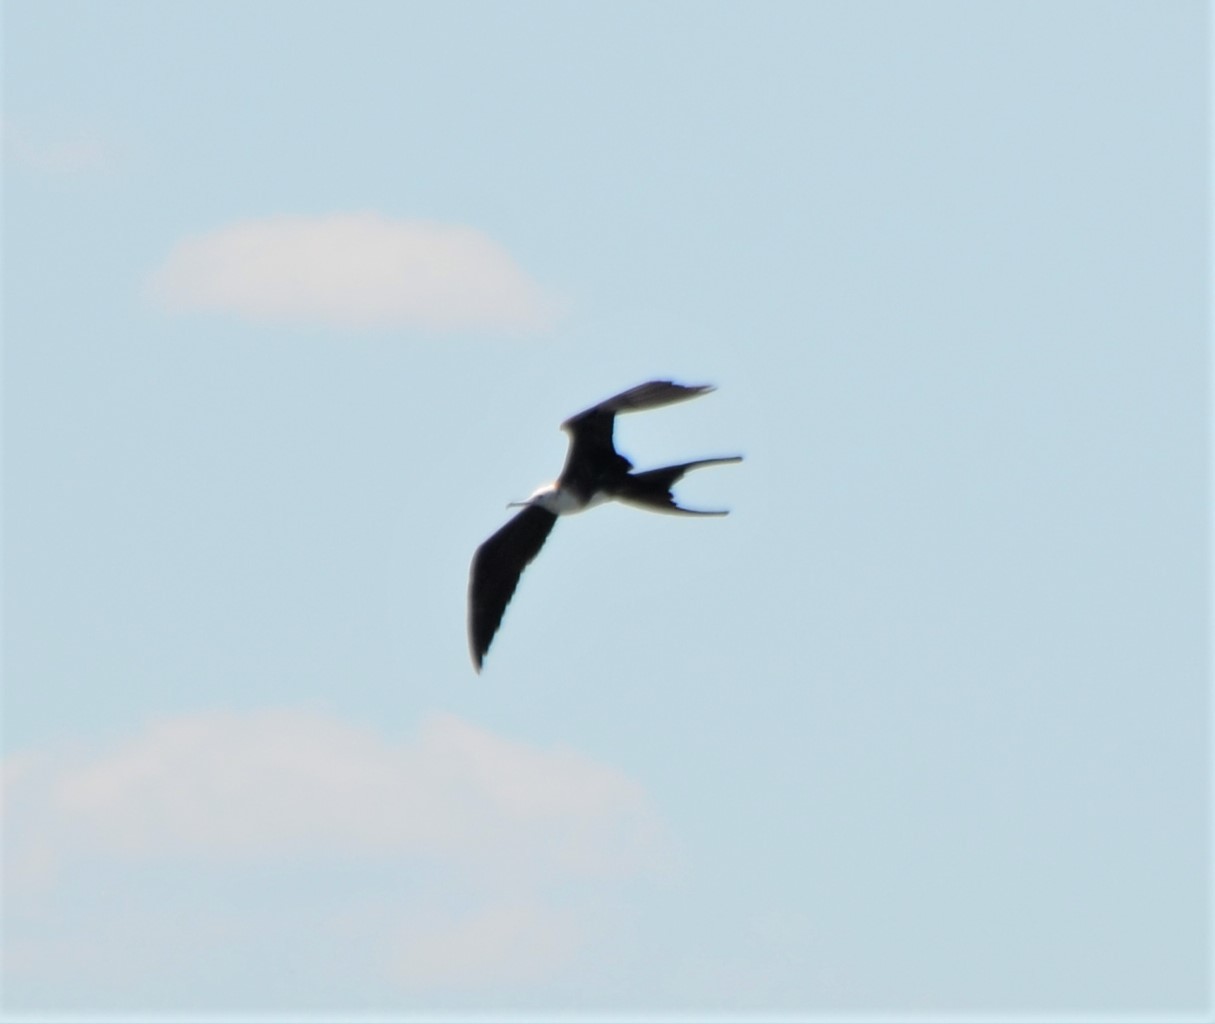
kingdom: Animalia
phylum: Chordata
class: Aves
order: Suliformes
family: Fregatidae
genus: Fregata
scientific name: Fregata magnificens
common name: Magnificent frigatebird
